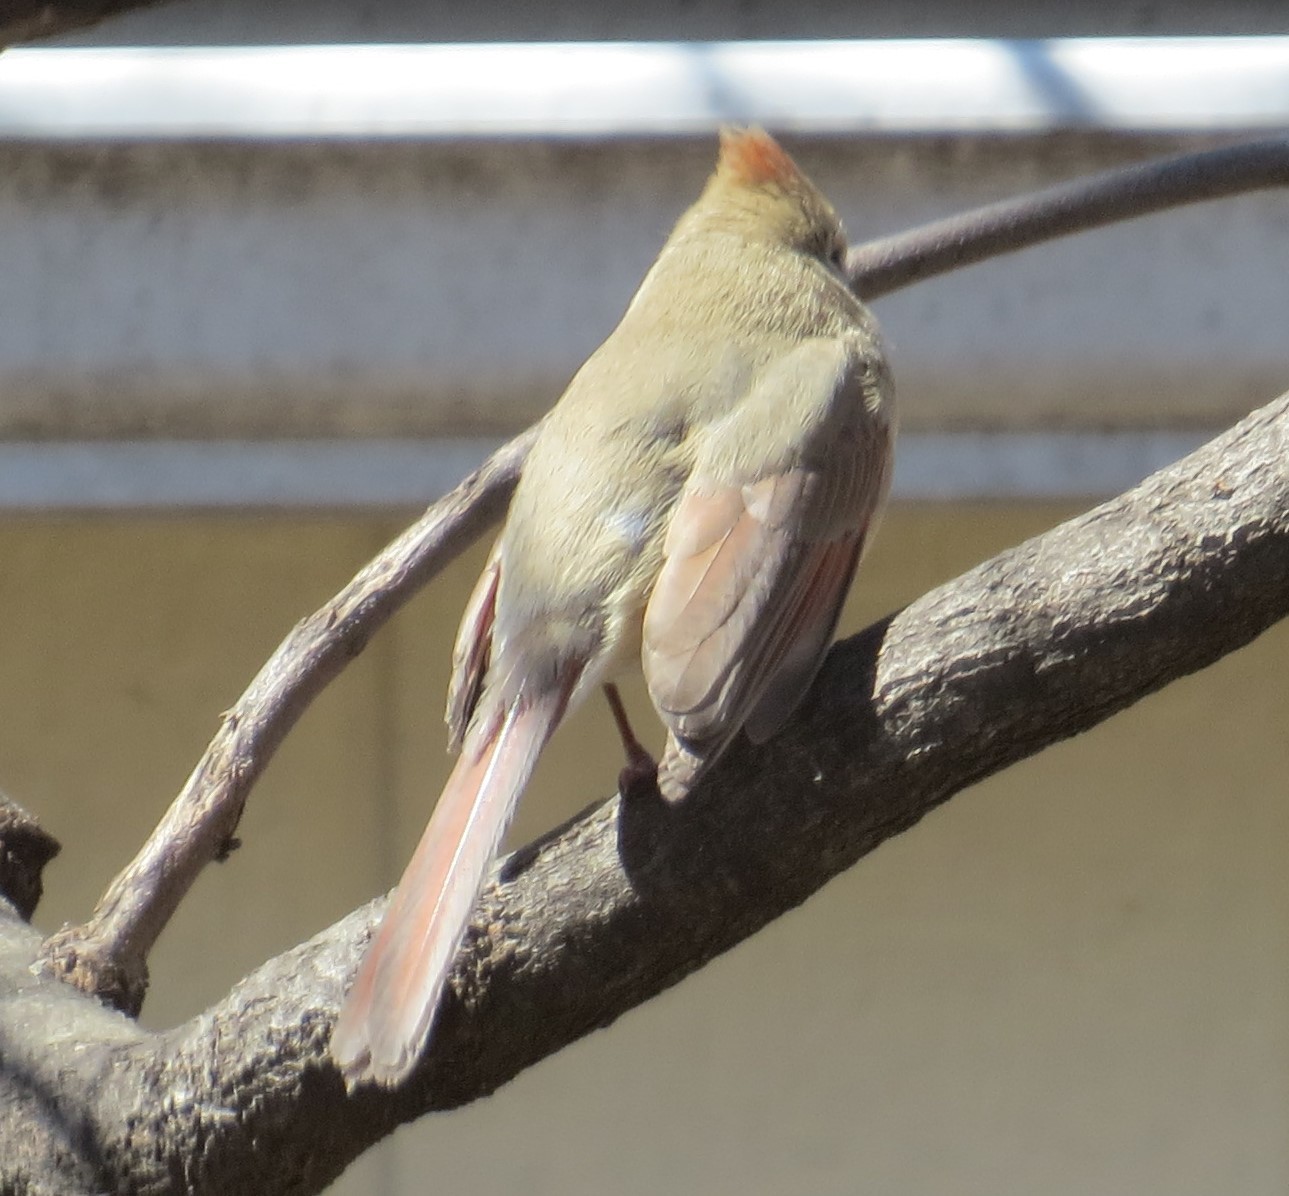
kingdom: Animalia
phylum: Chordata
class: Aves
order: Passeriformes
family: Cardinalidae
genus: Cardinalis
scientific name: Cardinalis cardinalis
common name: Northern cardinal
